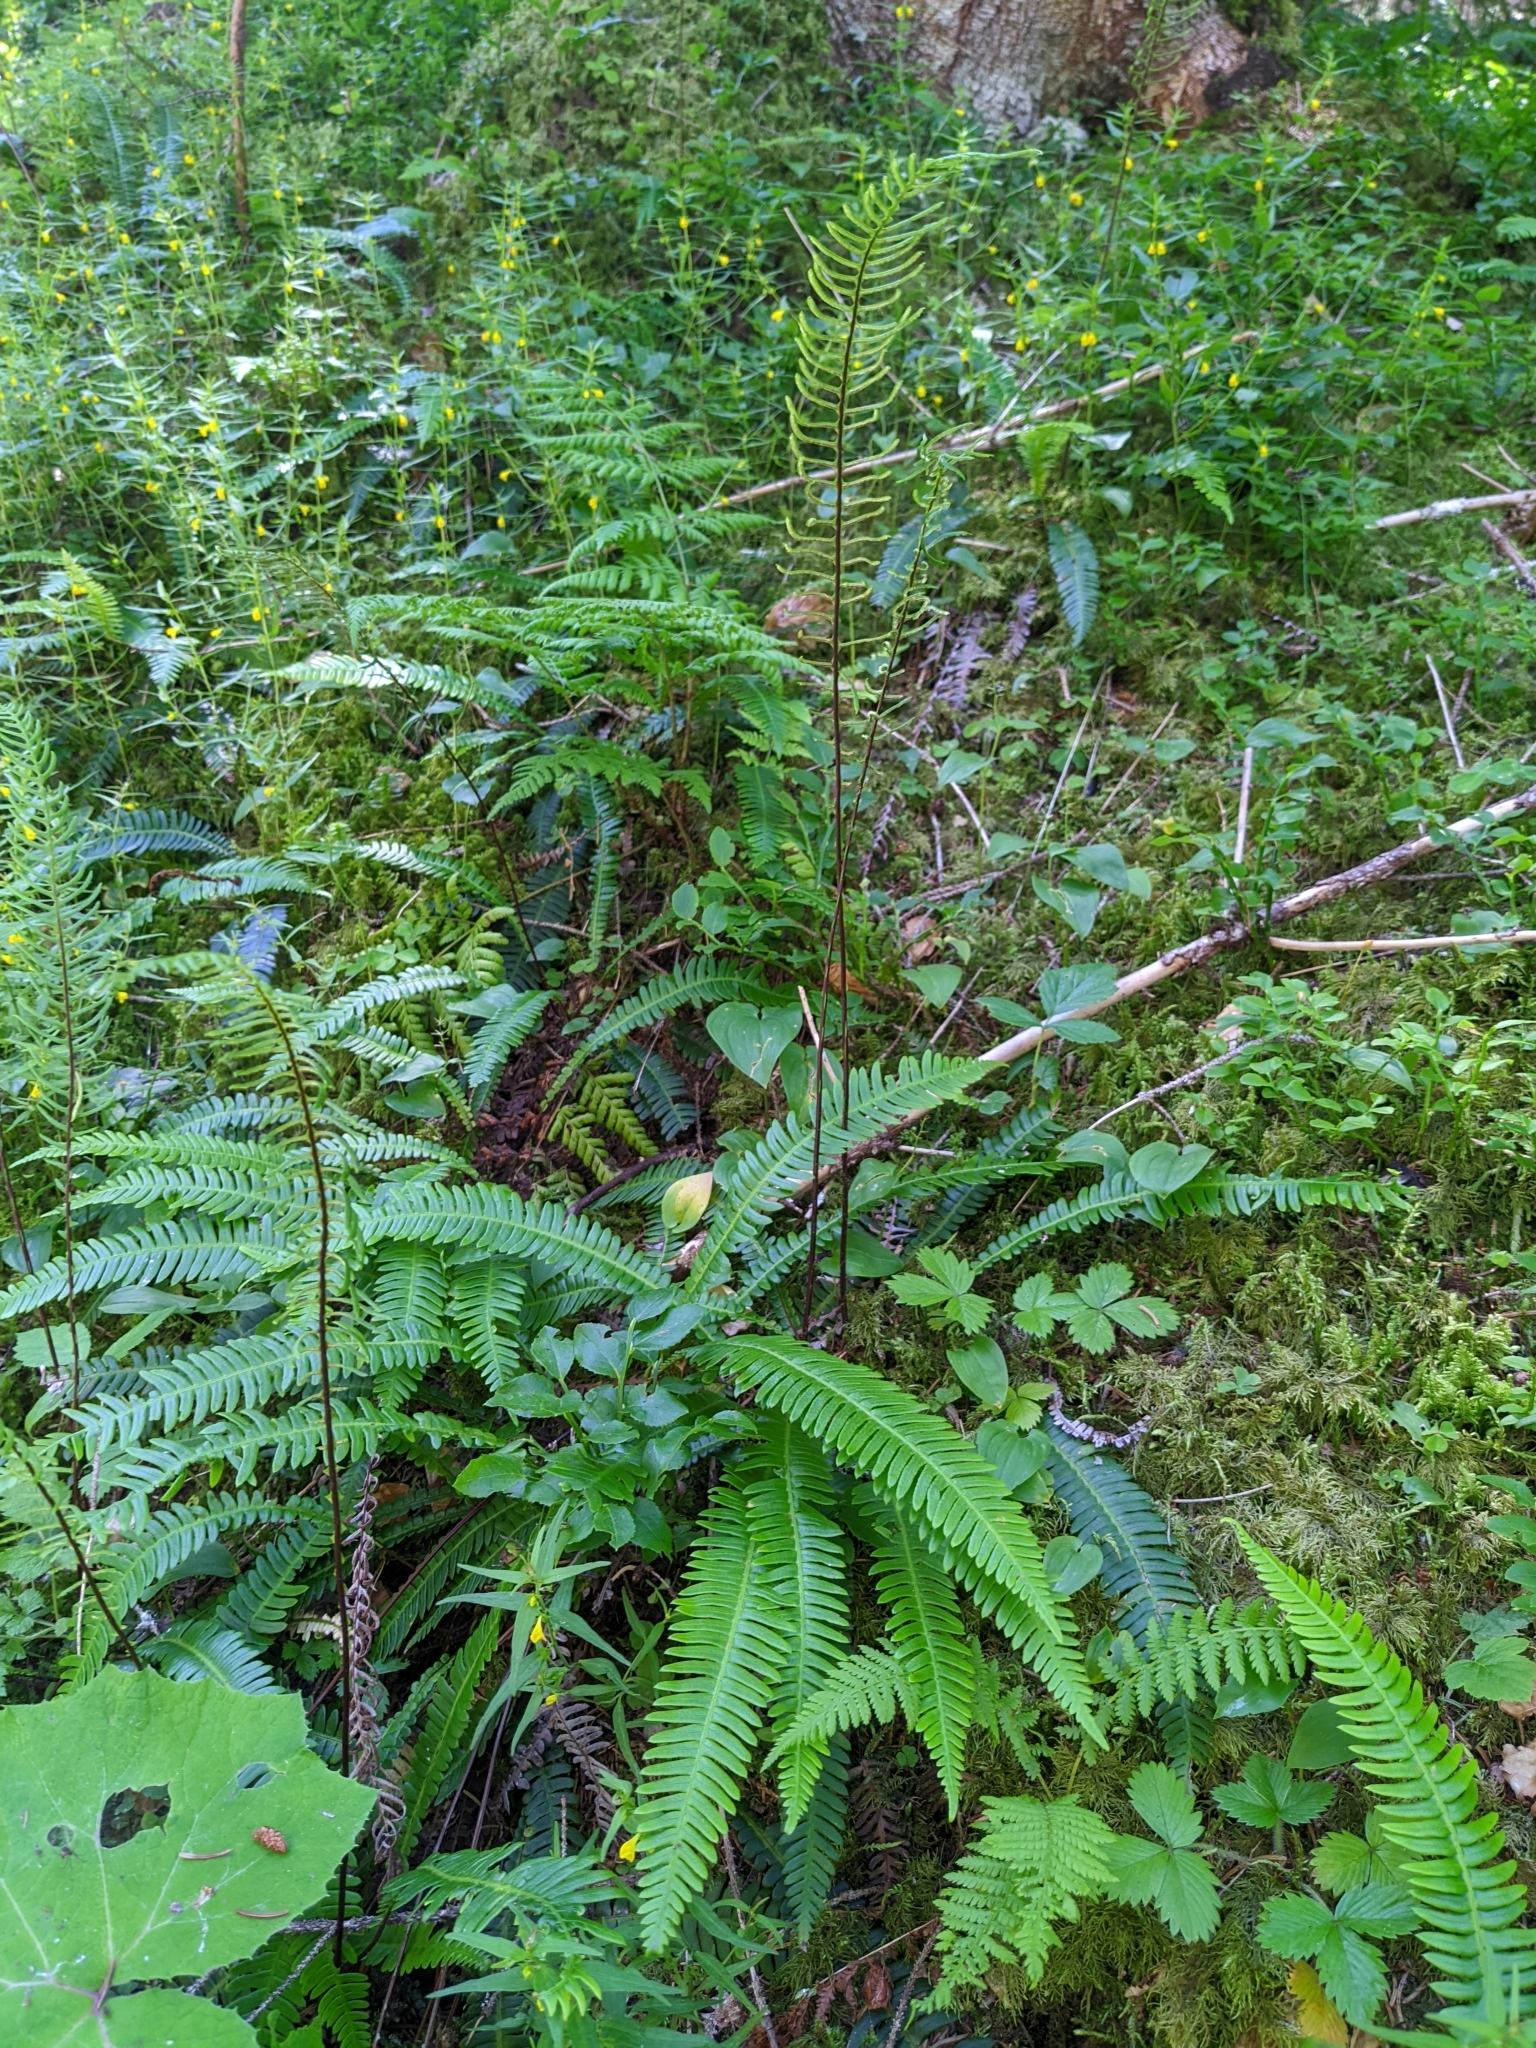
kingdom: Plantae
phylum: Tracheophyta
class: Polypodiopsida
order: Polypodiales
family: Blechnaceae
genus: Struthiopteris
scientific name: Struthiopteris spicant
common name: Deer fern
